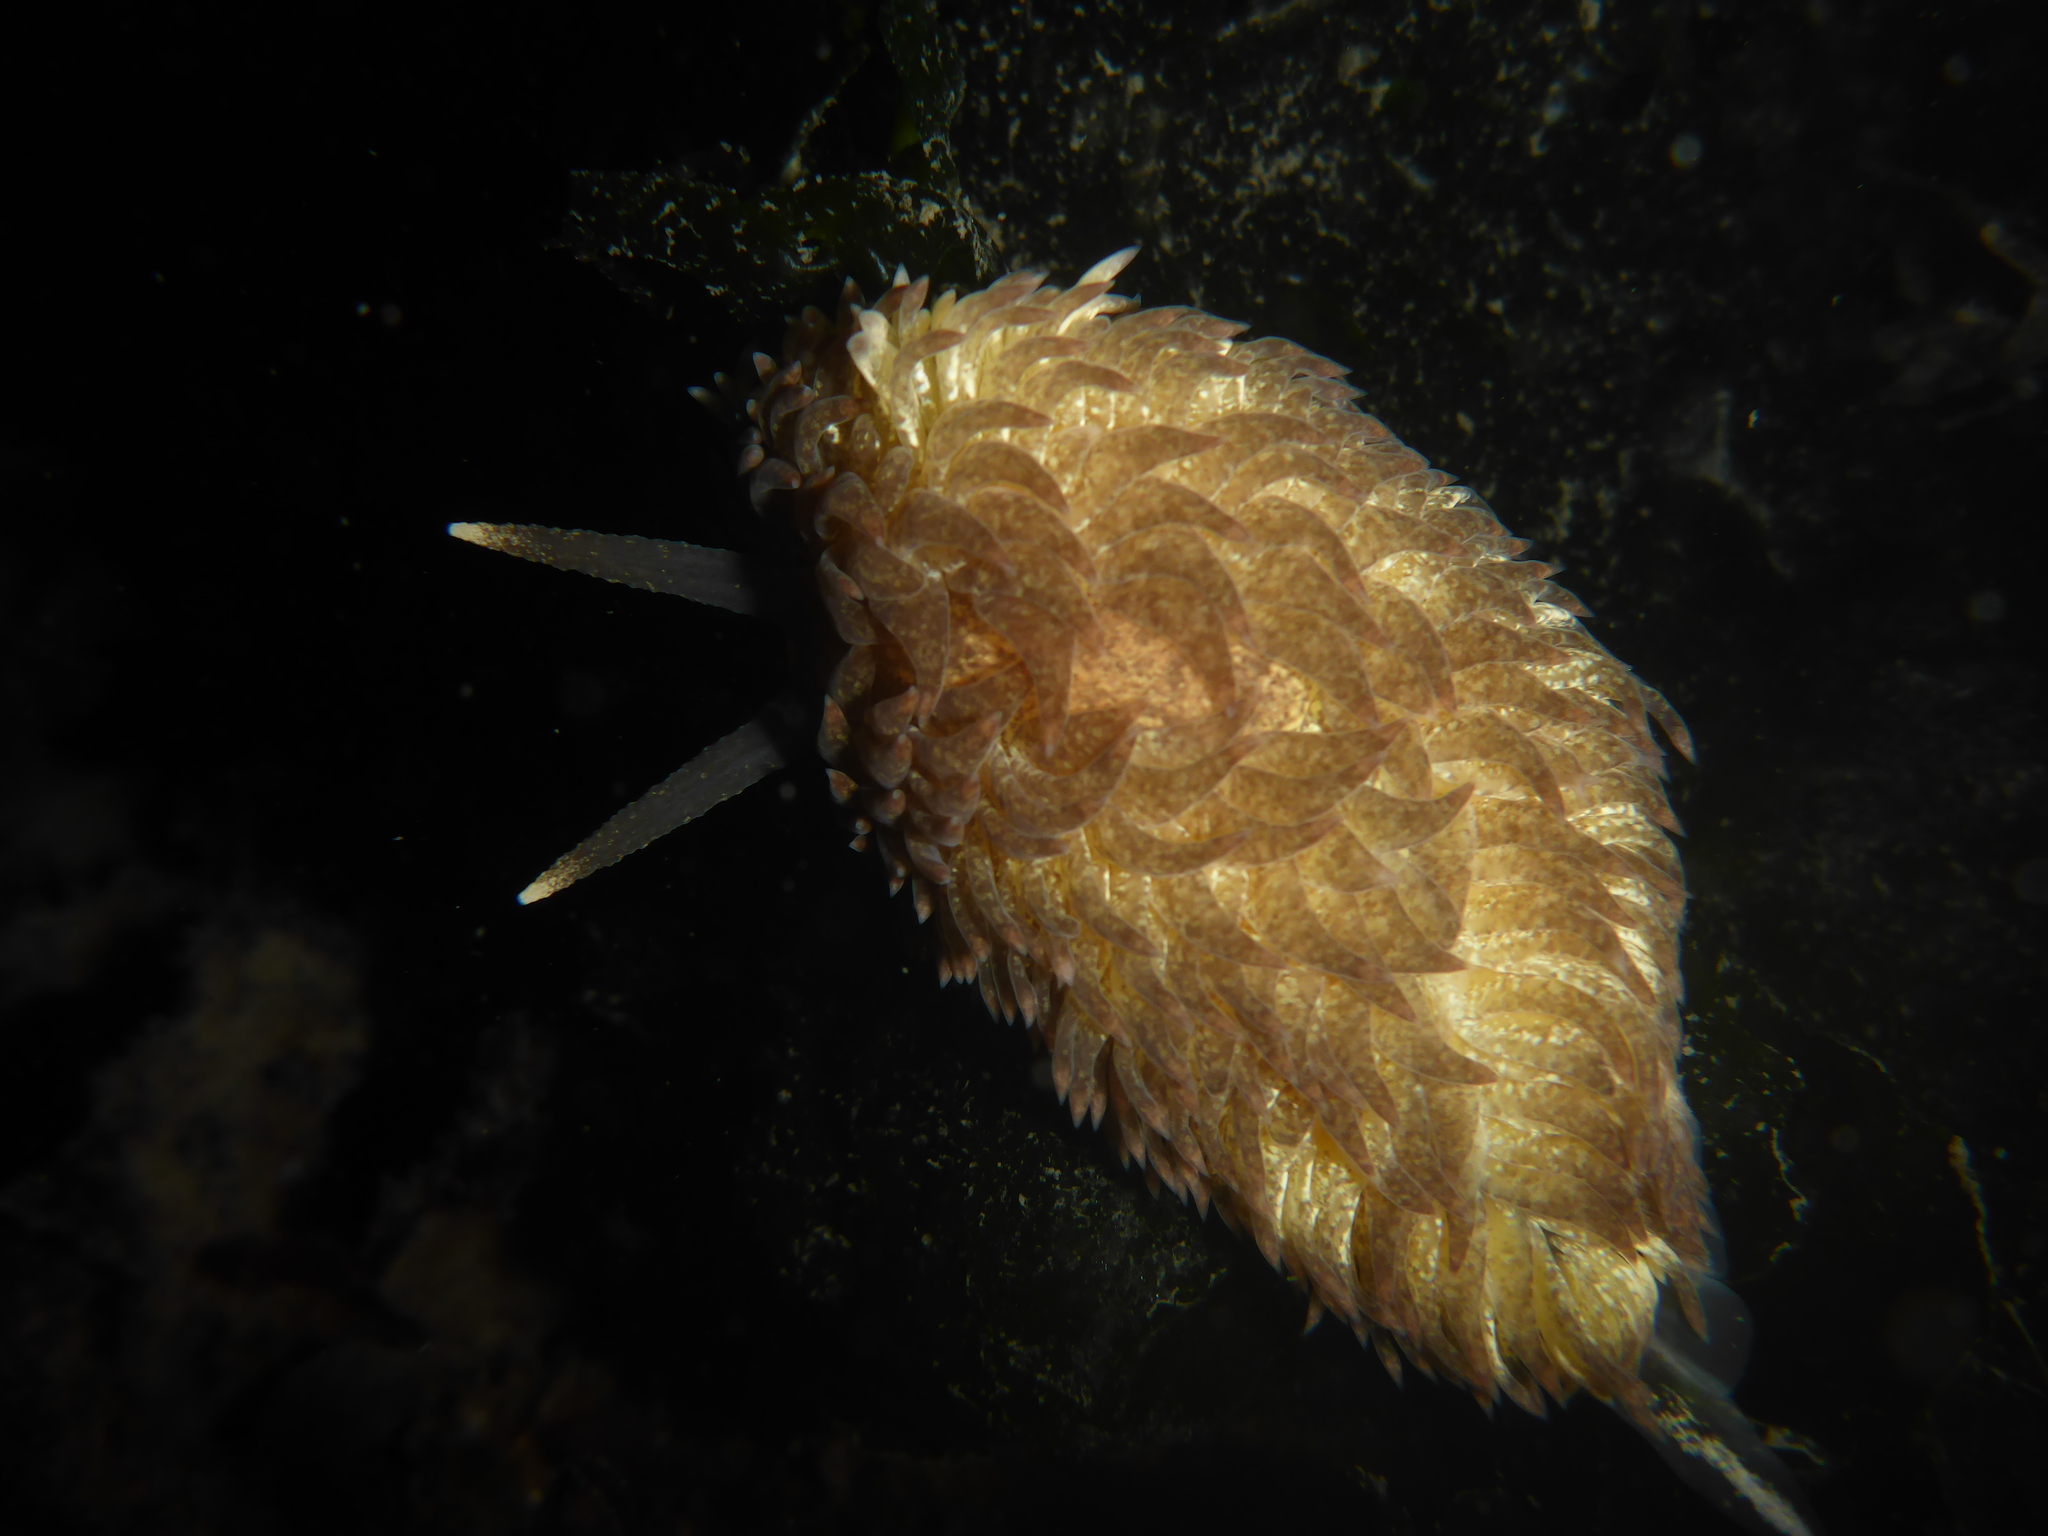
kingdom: Animalia
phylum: Mollusca
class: Gastropoda
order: Nudibranchia
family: Aeolidiidae
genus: Aeolidia
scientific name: Aeolidia papillosa
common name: Common grey sea slug
